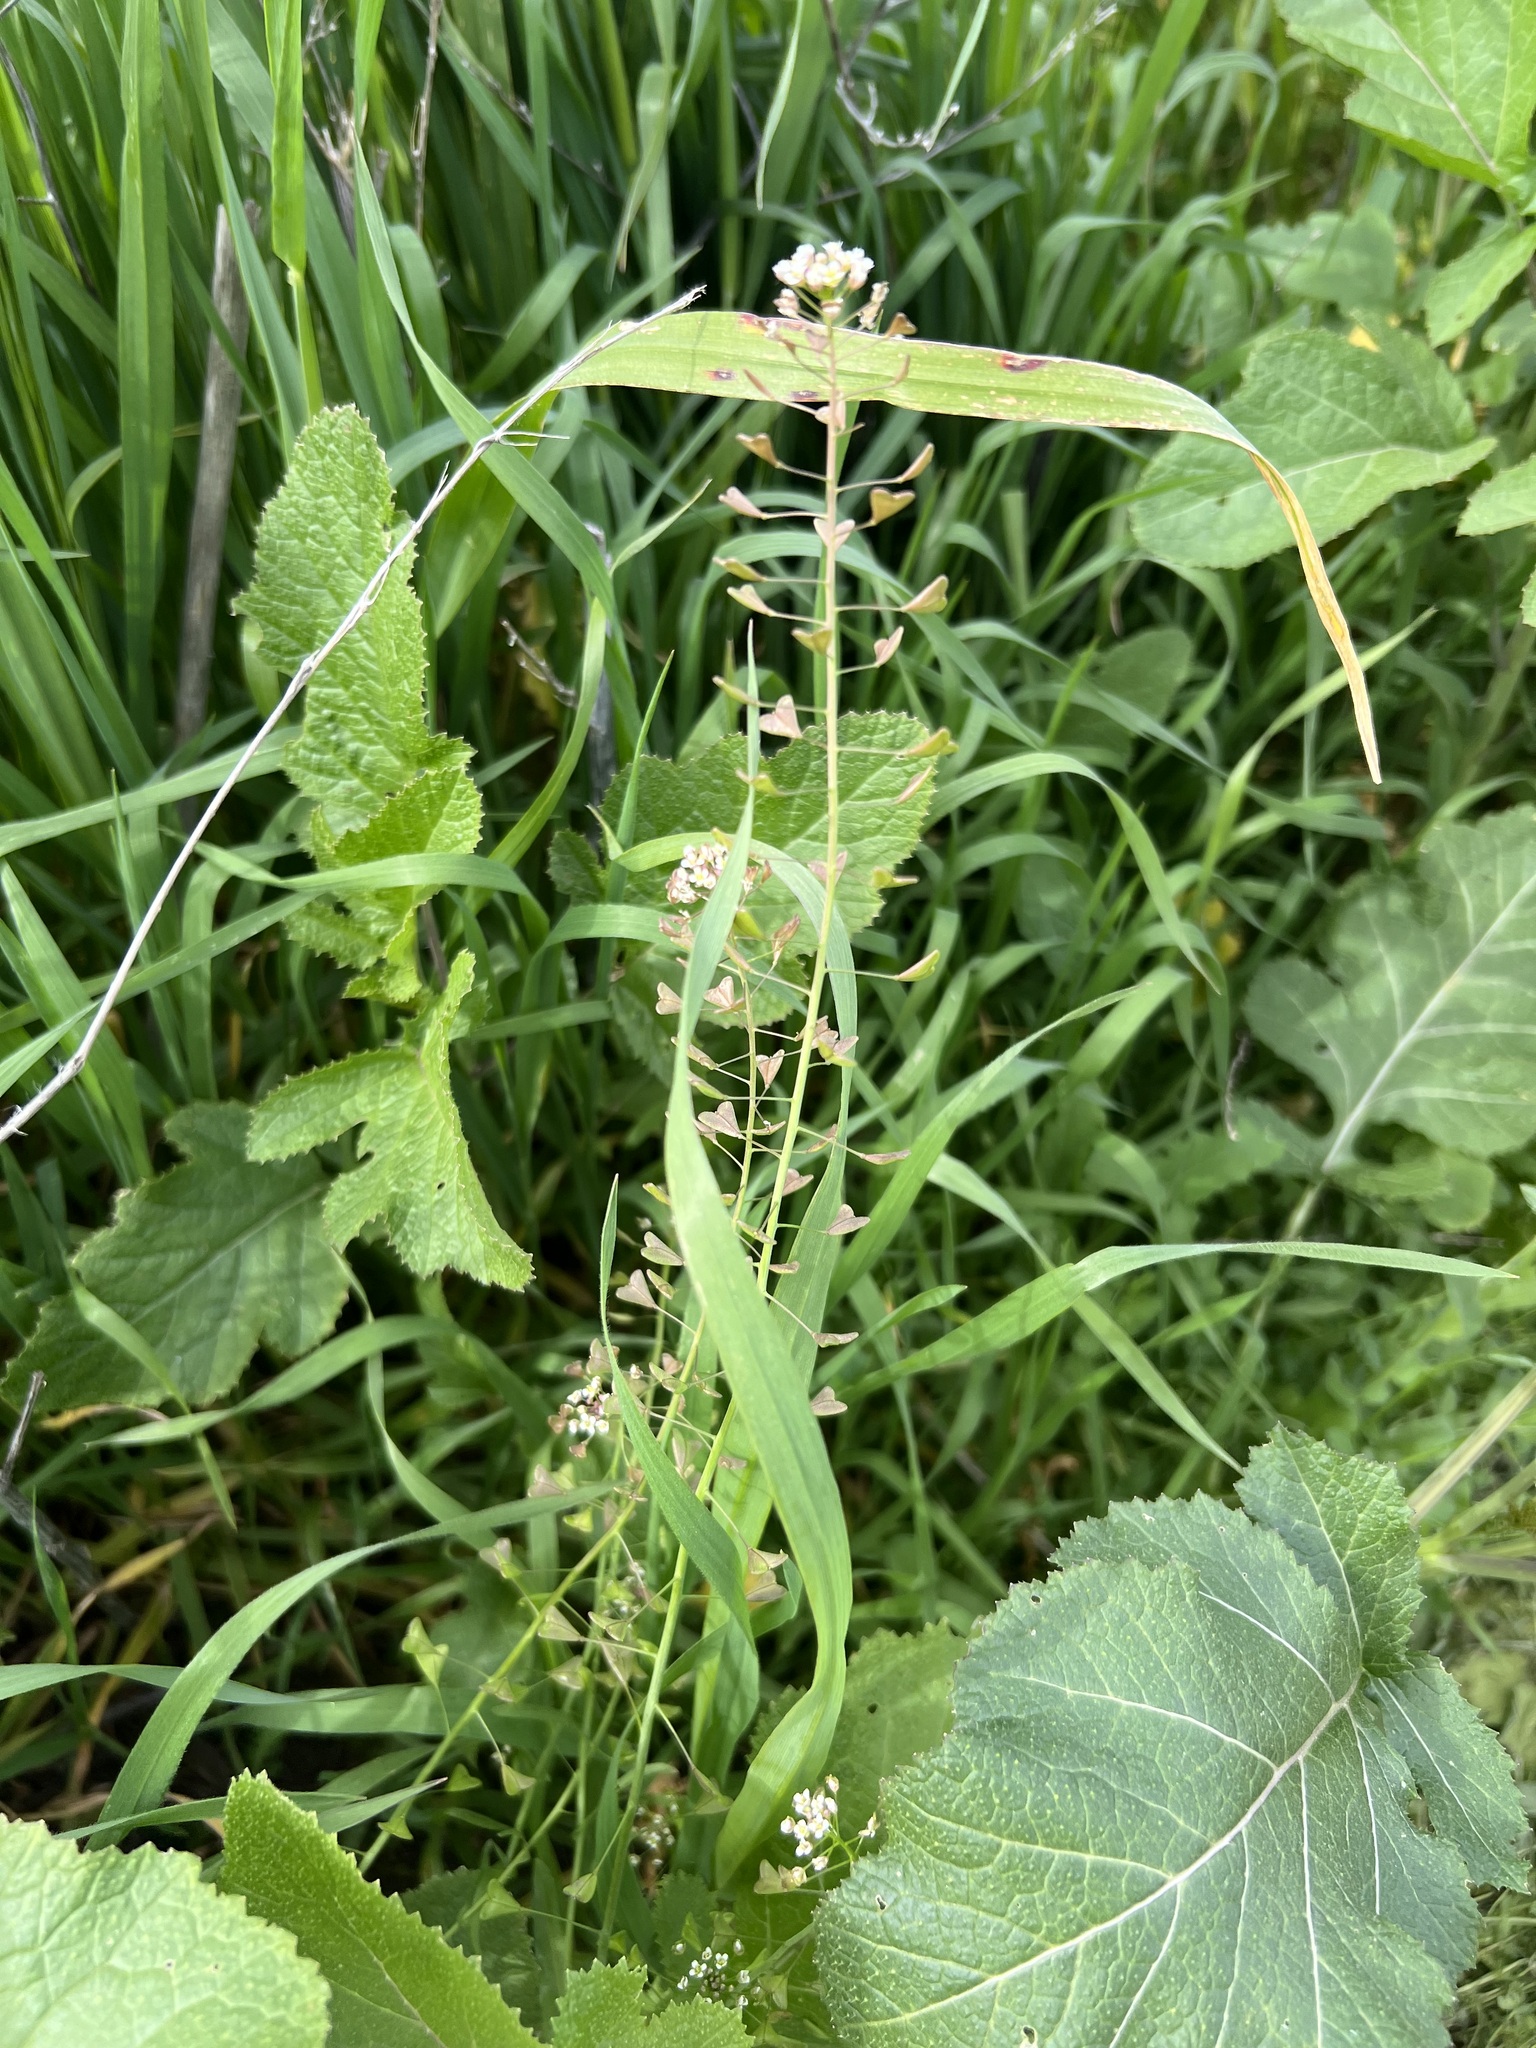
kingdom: Plantae
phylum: Tracheophyta
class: Magnoliopsida
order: Brassicales
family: Brassicaceae
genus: Capsella
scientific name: Capsella bursa-pastoris
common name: Shepherd's purse
